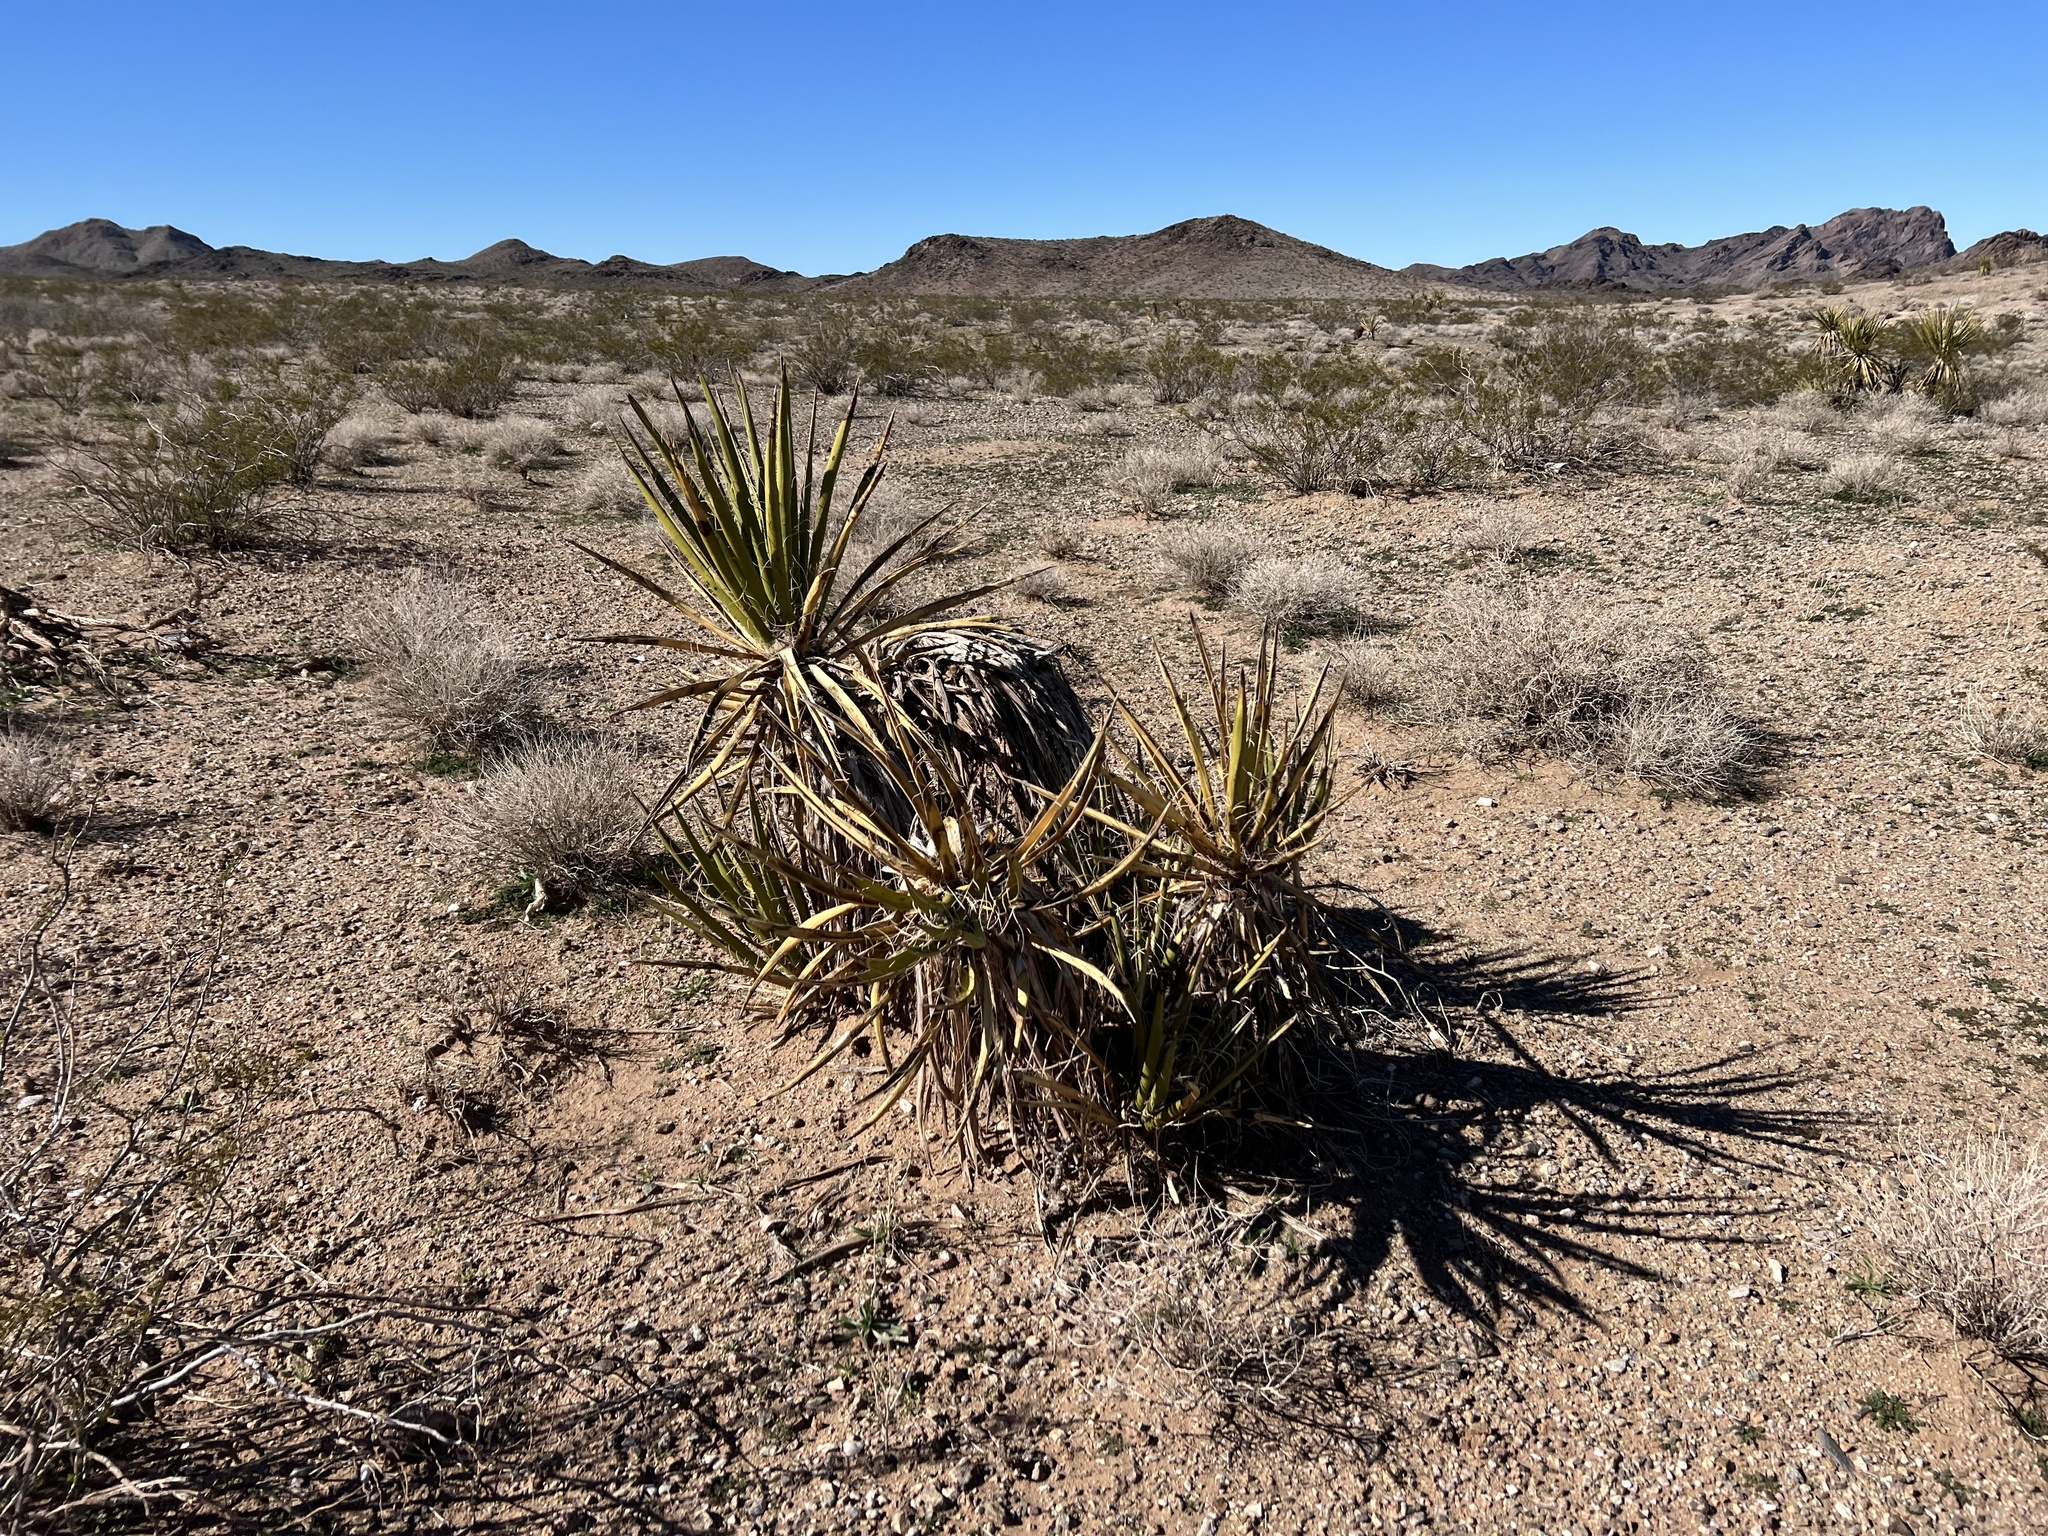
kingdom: Plantae
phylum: Tracheophyta
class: Liliopsida
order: Asparagales
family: Asparagaceae
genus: Yucca
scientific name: Yucca schidigera
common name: Mojave yucca
